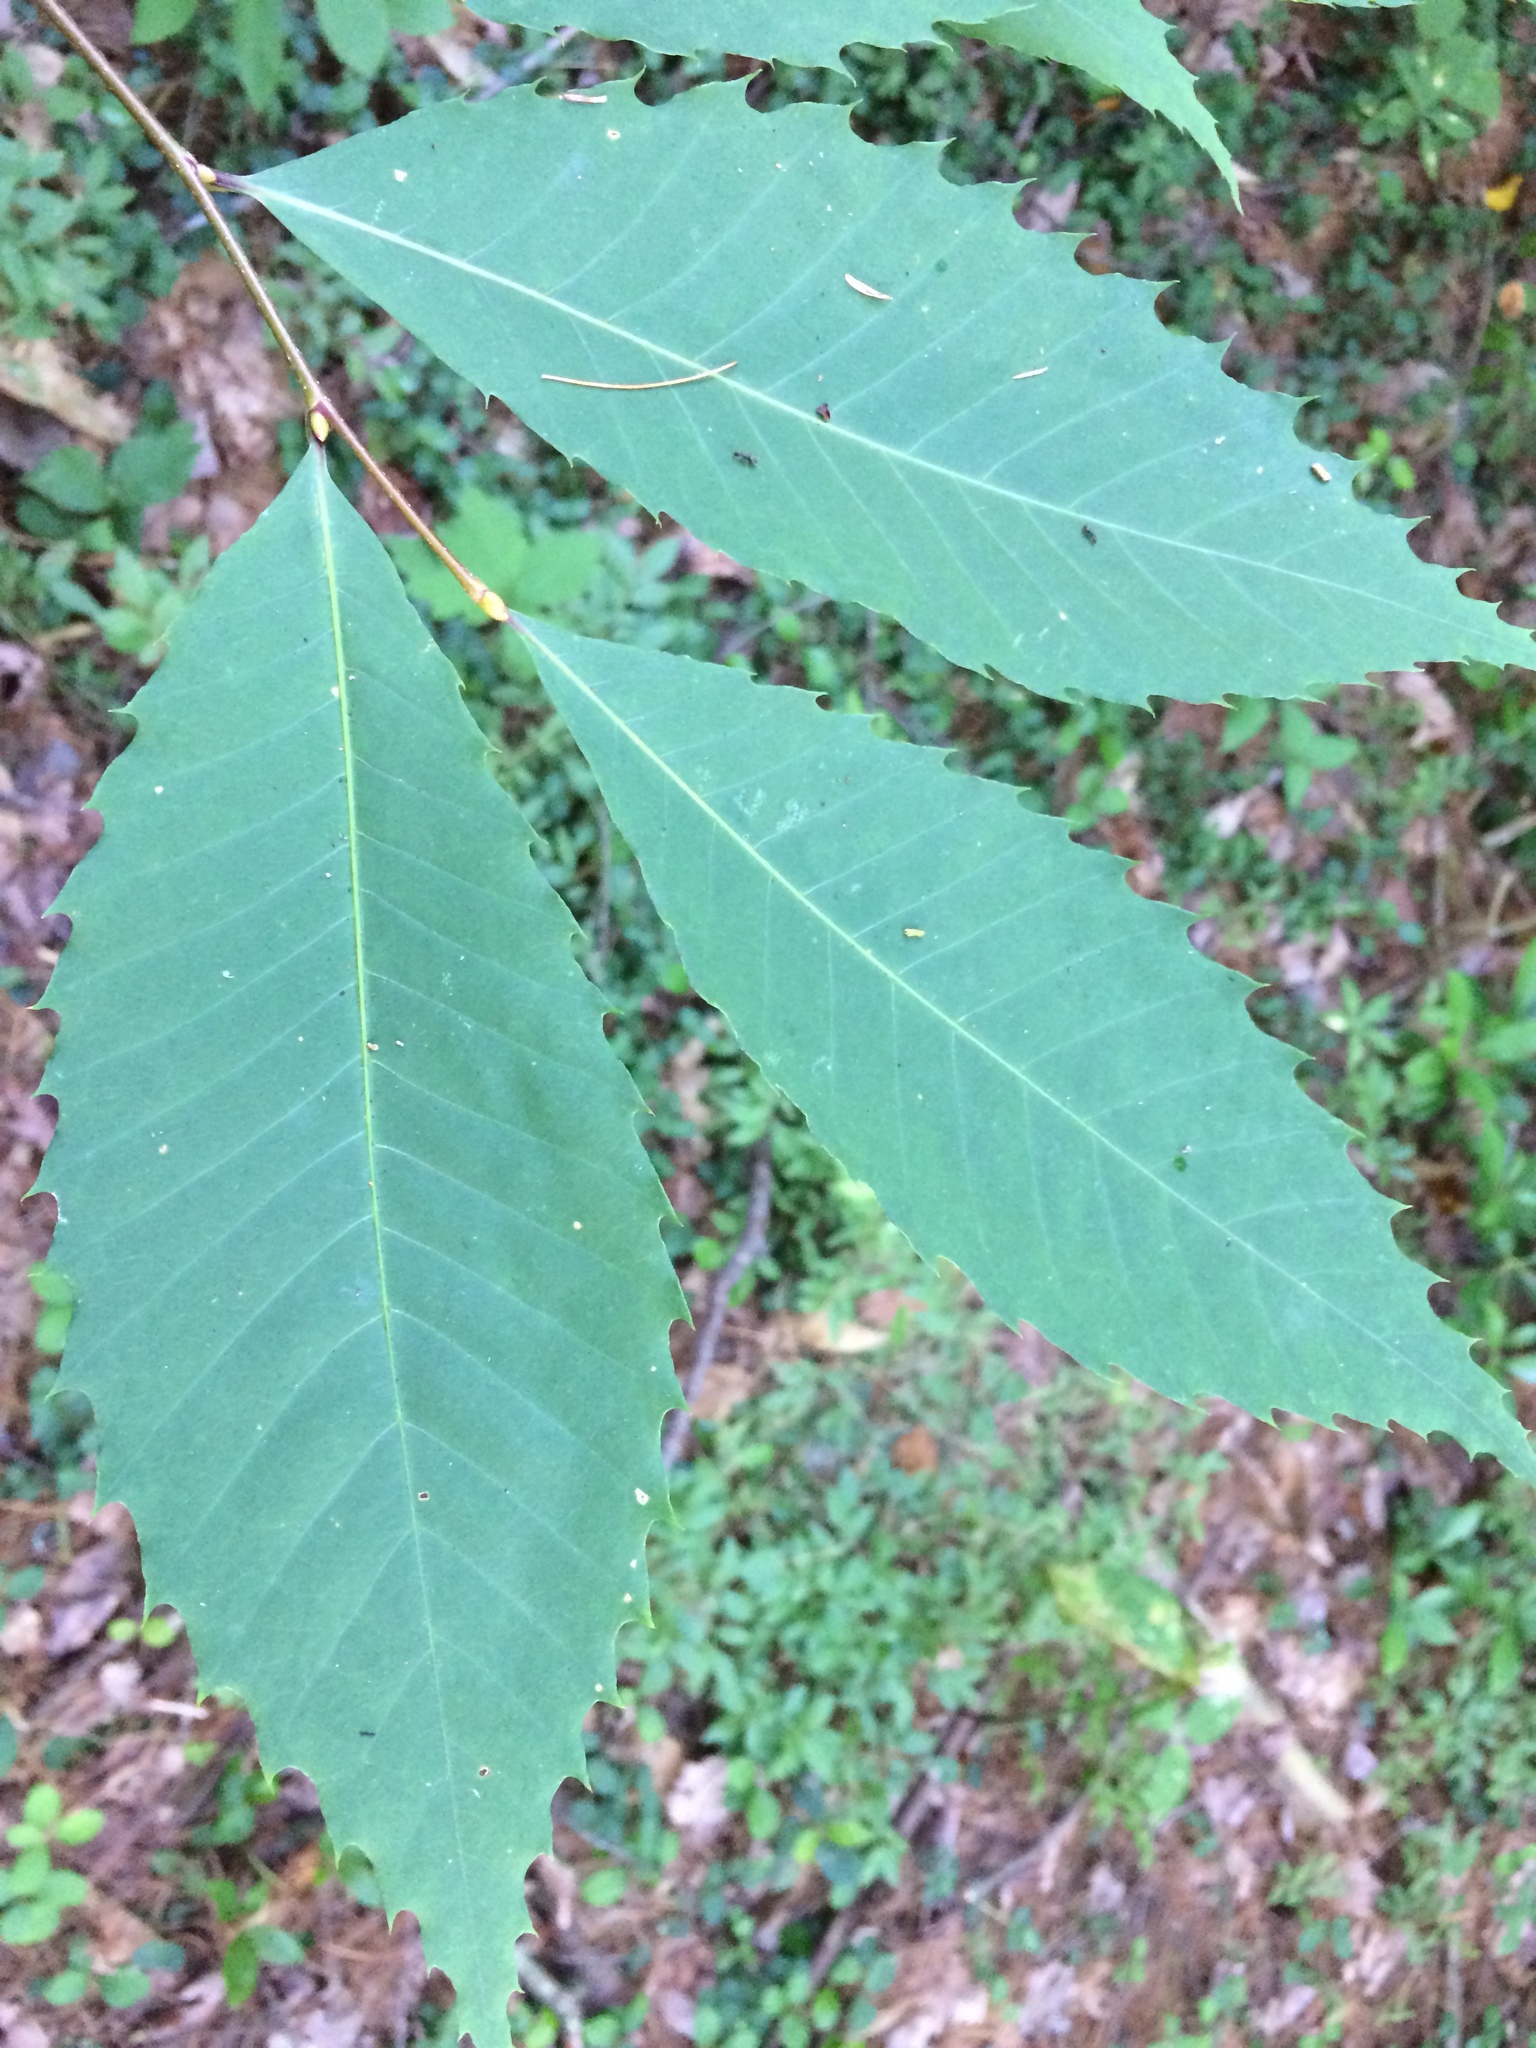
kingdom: Plantae
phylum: Tracheophyta
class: Magnoliopsida
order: Fagales
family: Fagaceae
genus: Castanea
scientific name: Castanea dentata
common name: American chestnut
